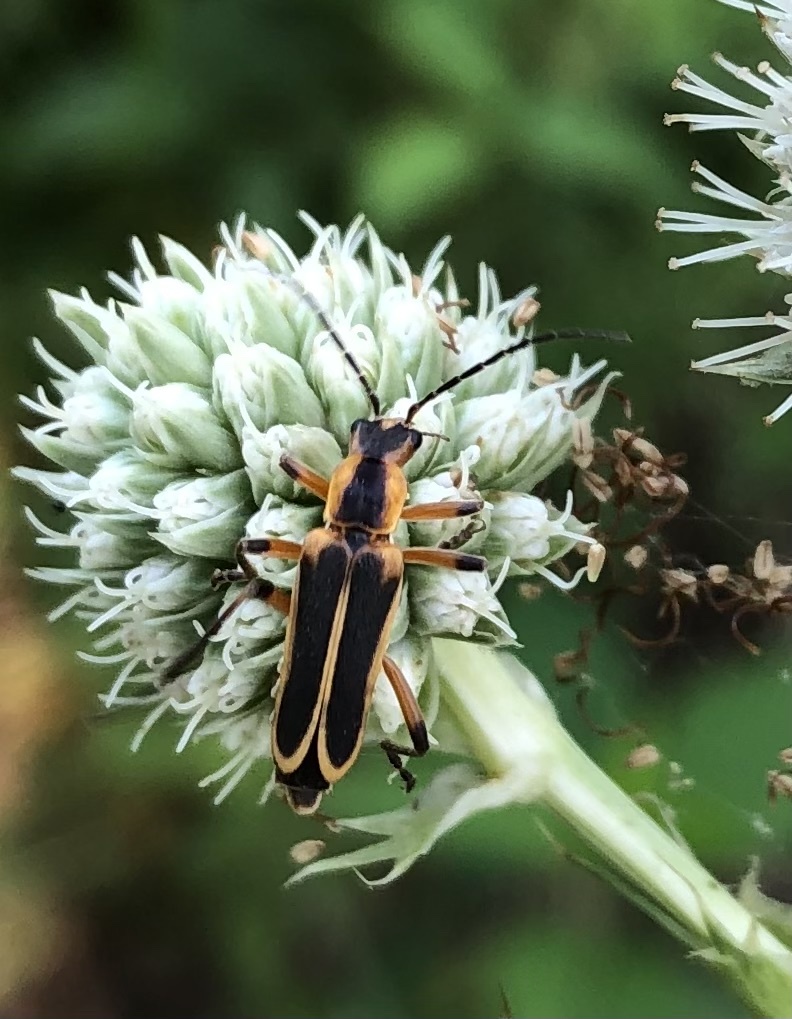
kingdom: Animalia
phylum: Arthropoda
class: Insecta
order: Coleoptera
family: Cantharidae
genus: Chauliognathus
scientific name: Chauliognathus marginatus
